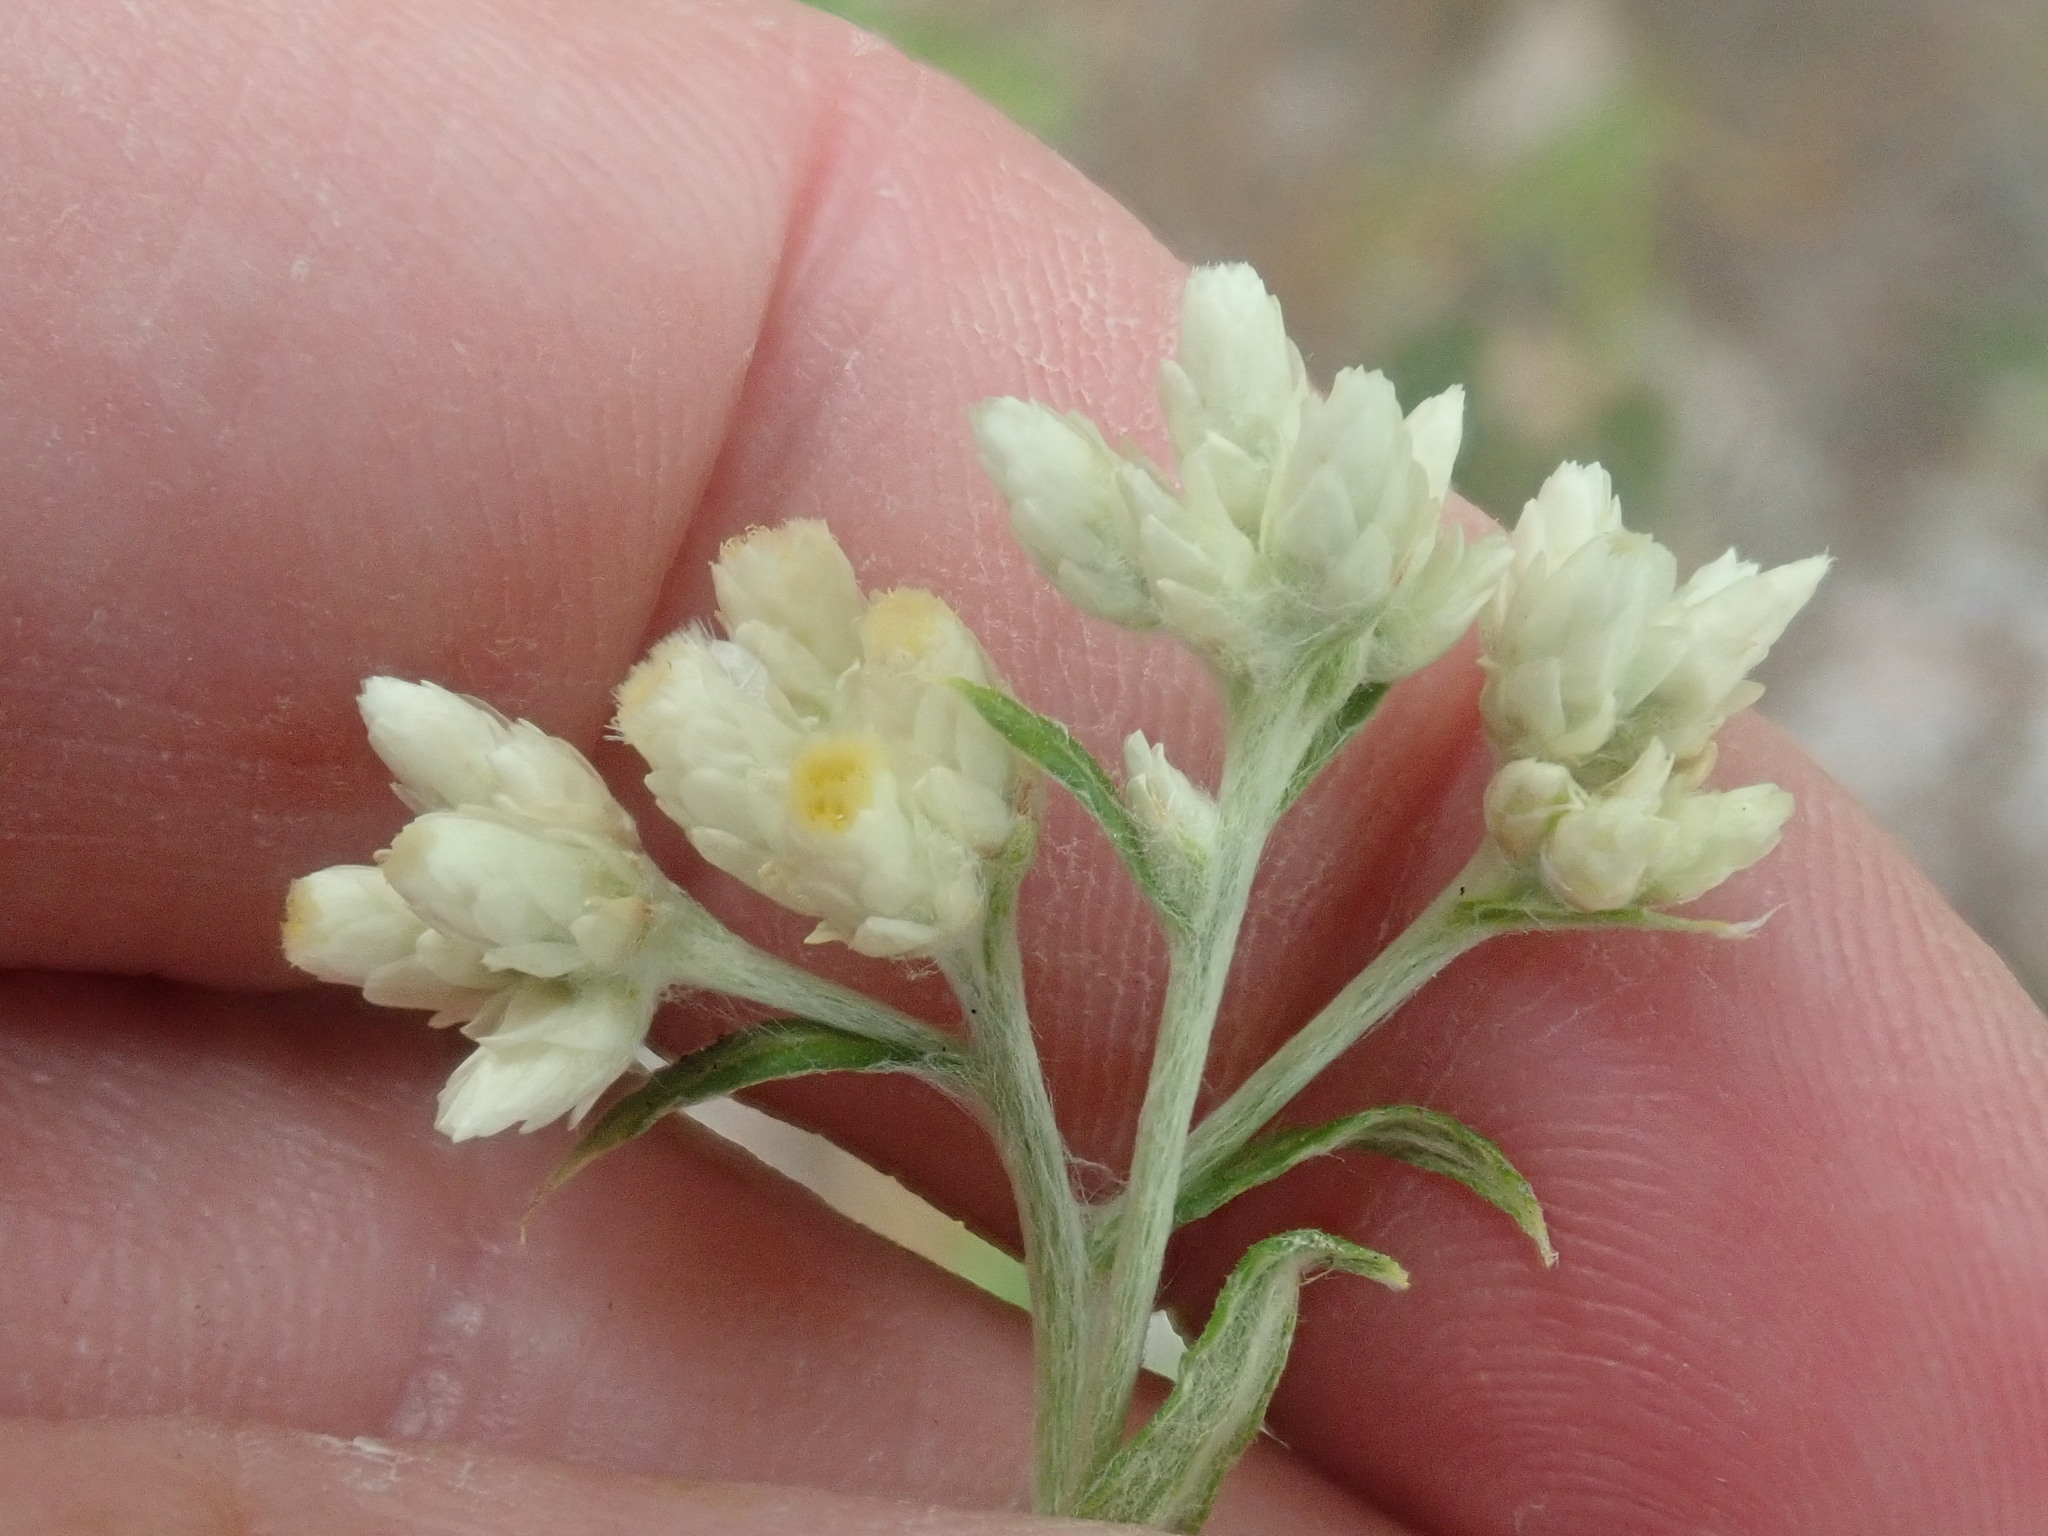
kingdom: Plantae
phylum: Tracheophyta
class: Magnoliopsida
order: Asterales
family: Asteraceae
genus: Pseudognaphalium
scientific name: Pseudognaphalium obtusifolium
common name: Eastern rabbit-tobacco
